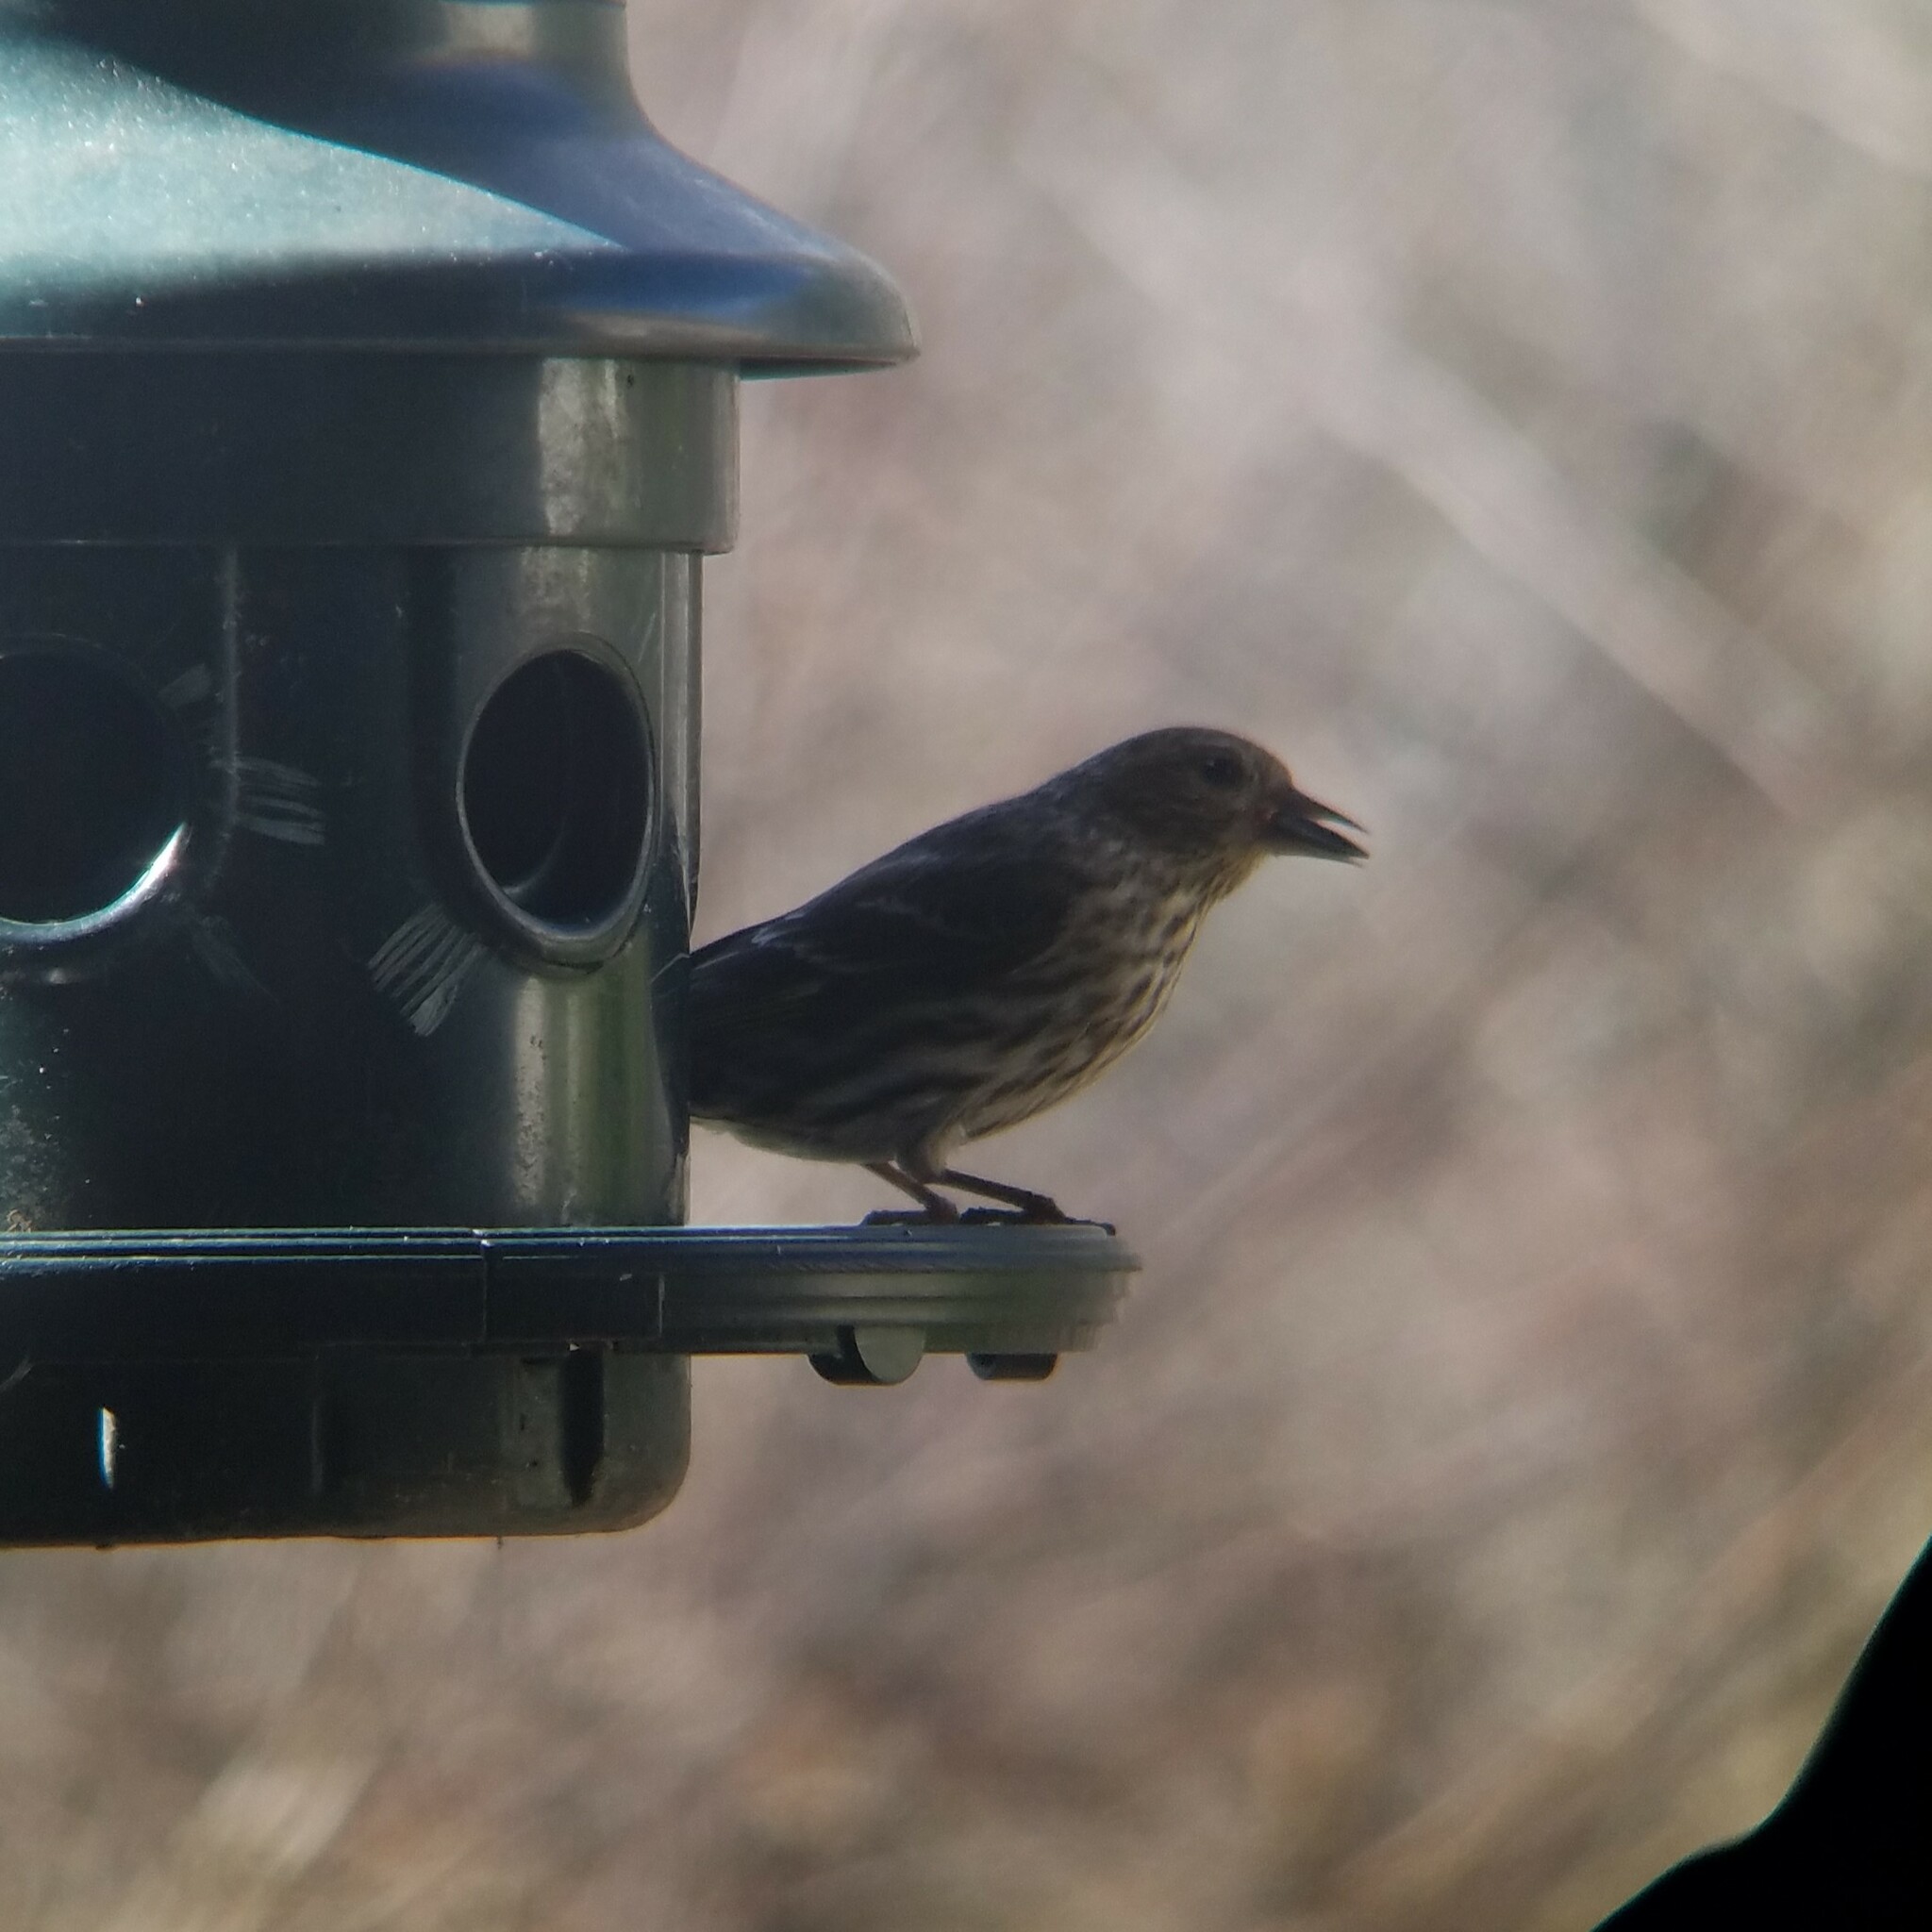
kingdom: Animalia
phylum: Chordata
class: Aves
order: Passeriformes
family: Fringillidae
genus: Spinus
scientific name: Spinus pinus
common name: Pine siskin
